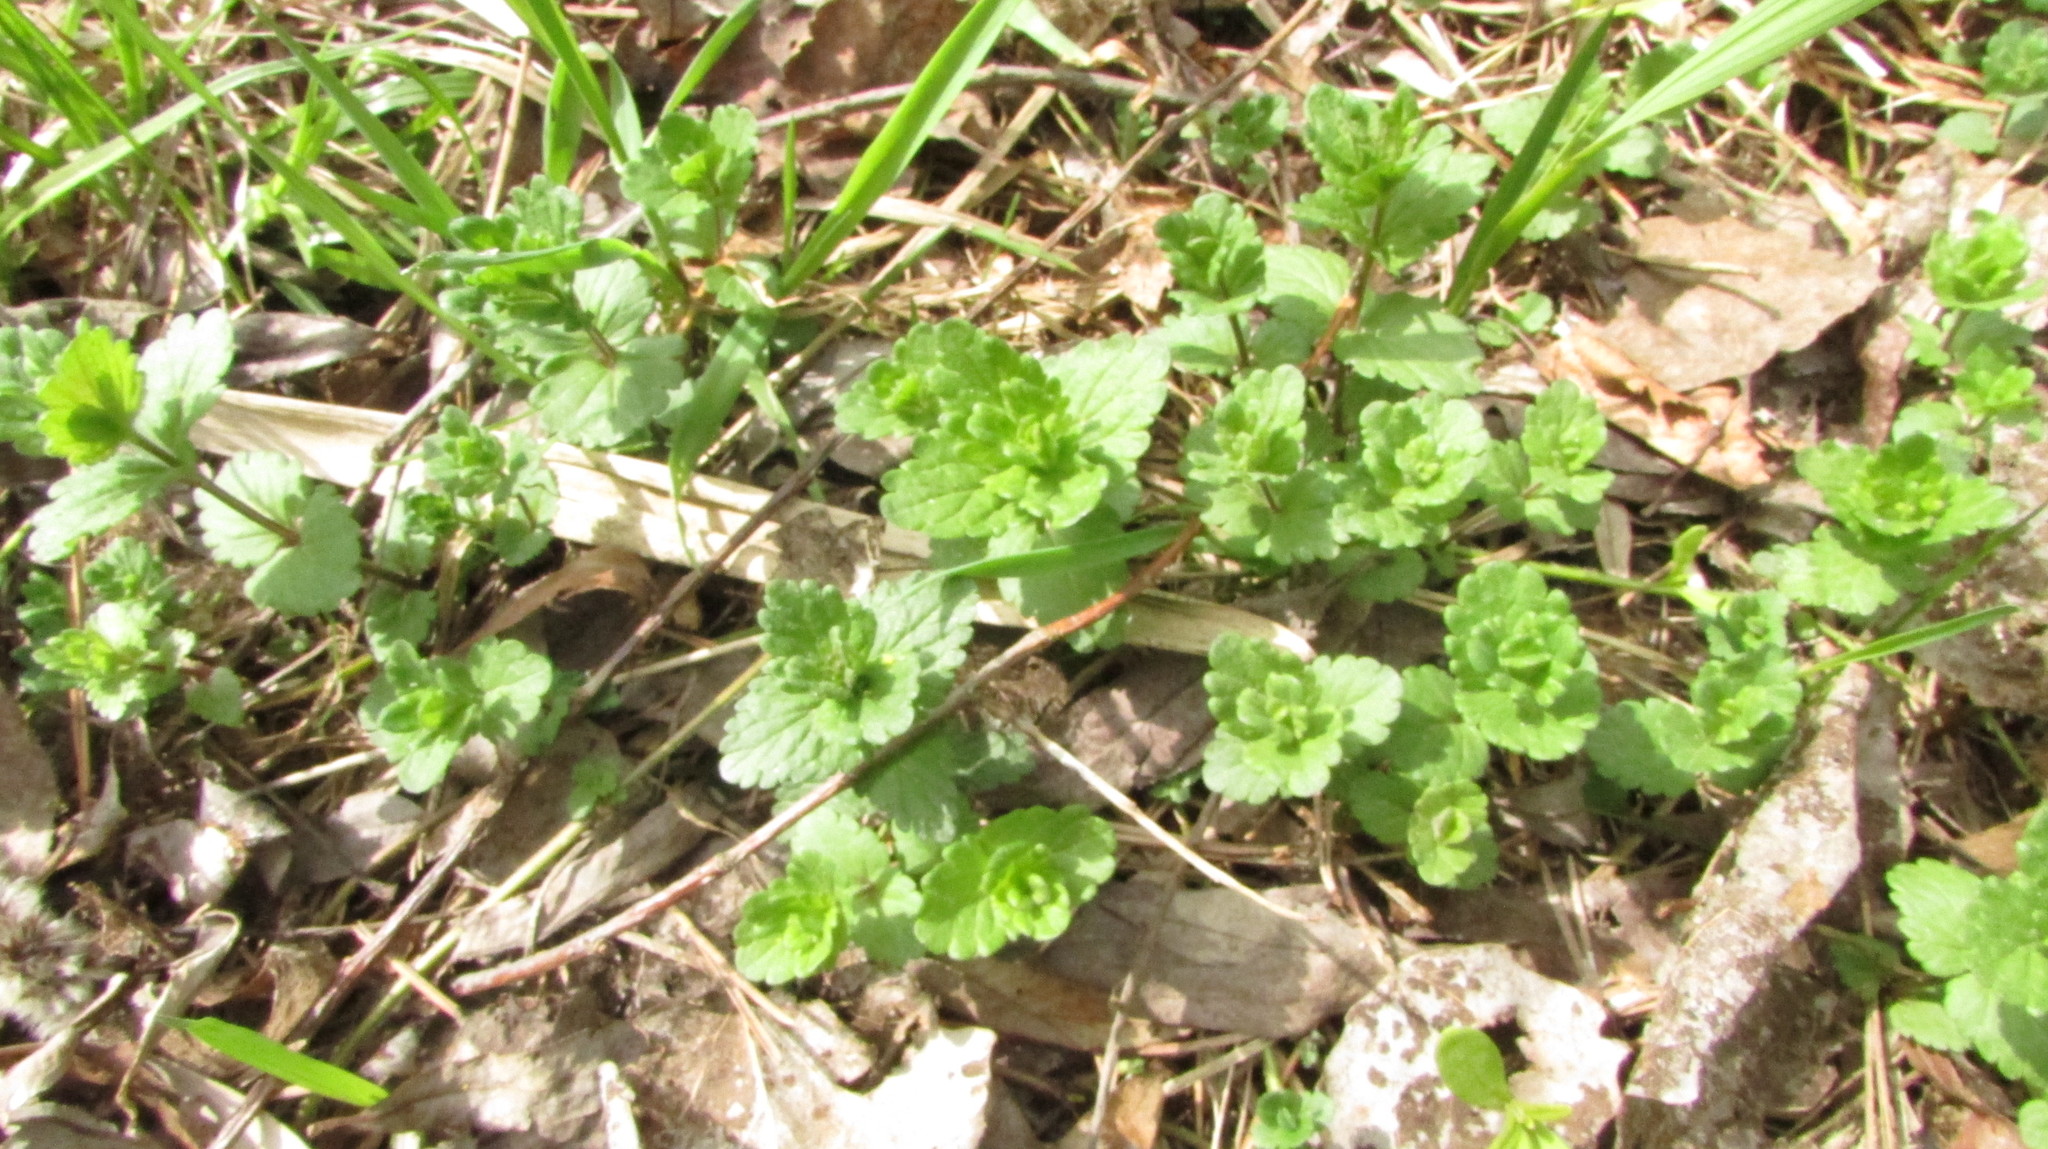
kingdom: Plantae
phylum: Tracheophyta
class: Magnoliopsida
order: Lamiales
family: Lamiaceae
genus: Glechoma
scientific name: Glechoma hederacea
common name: Ground ivy
